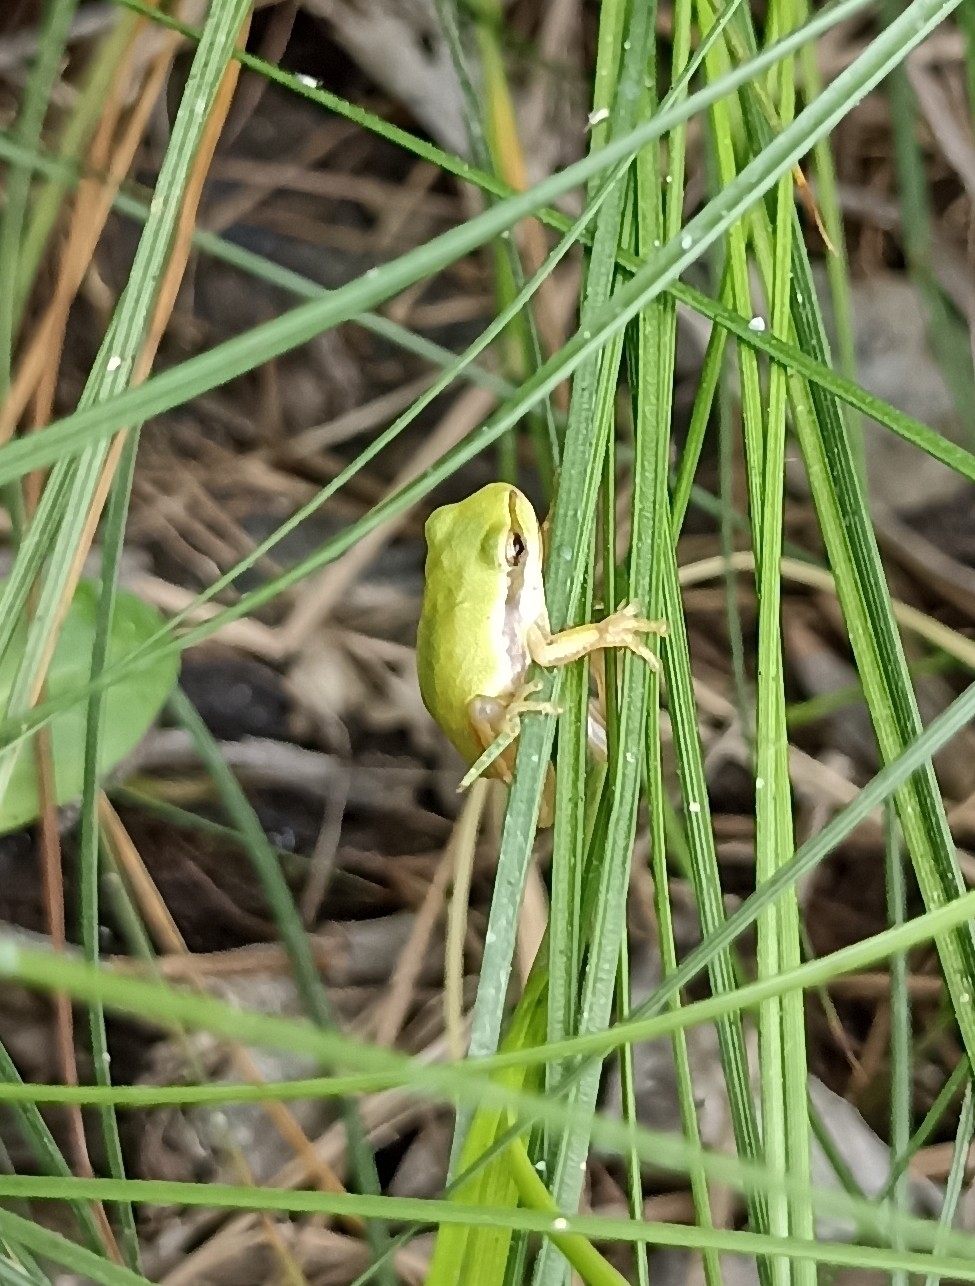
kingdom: Animalia
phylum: Chordata
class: Amphibia
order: Anura
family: Hylidae
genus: Hyla
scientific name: Hyla meridionalis
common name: Stripeless tree frog
